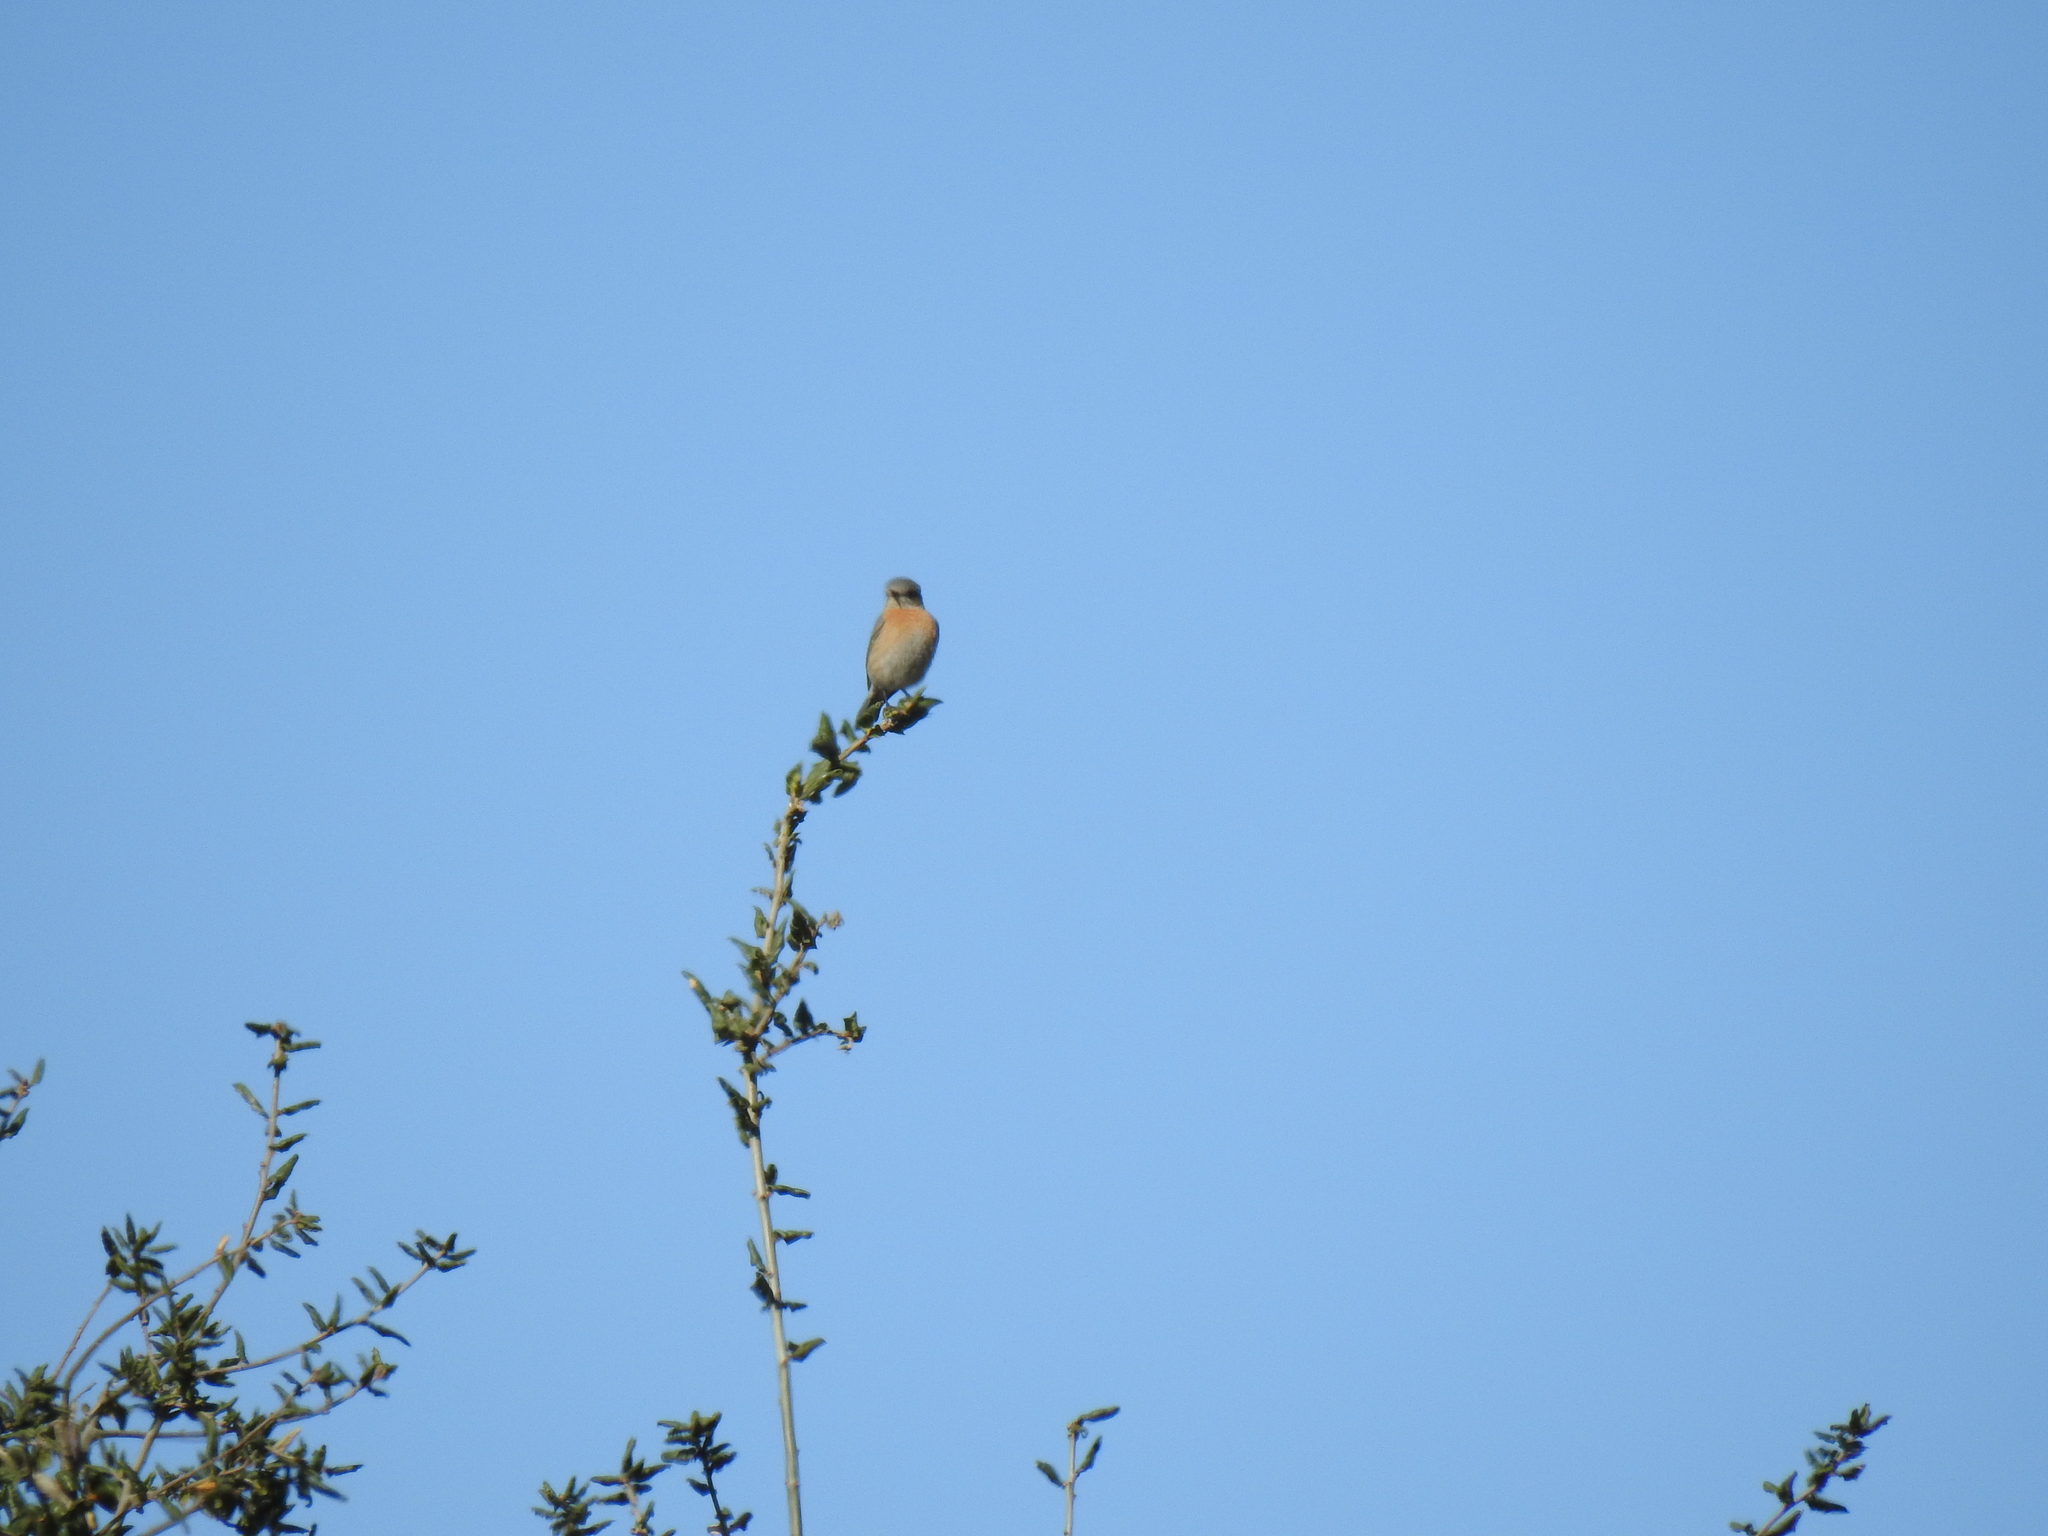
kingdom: Animalia
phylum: Chordata
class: Aves
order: Passeriformes
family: Turdidae
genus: Sialia
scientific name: Sialia mexicana
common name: Western bluebird
